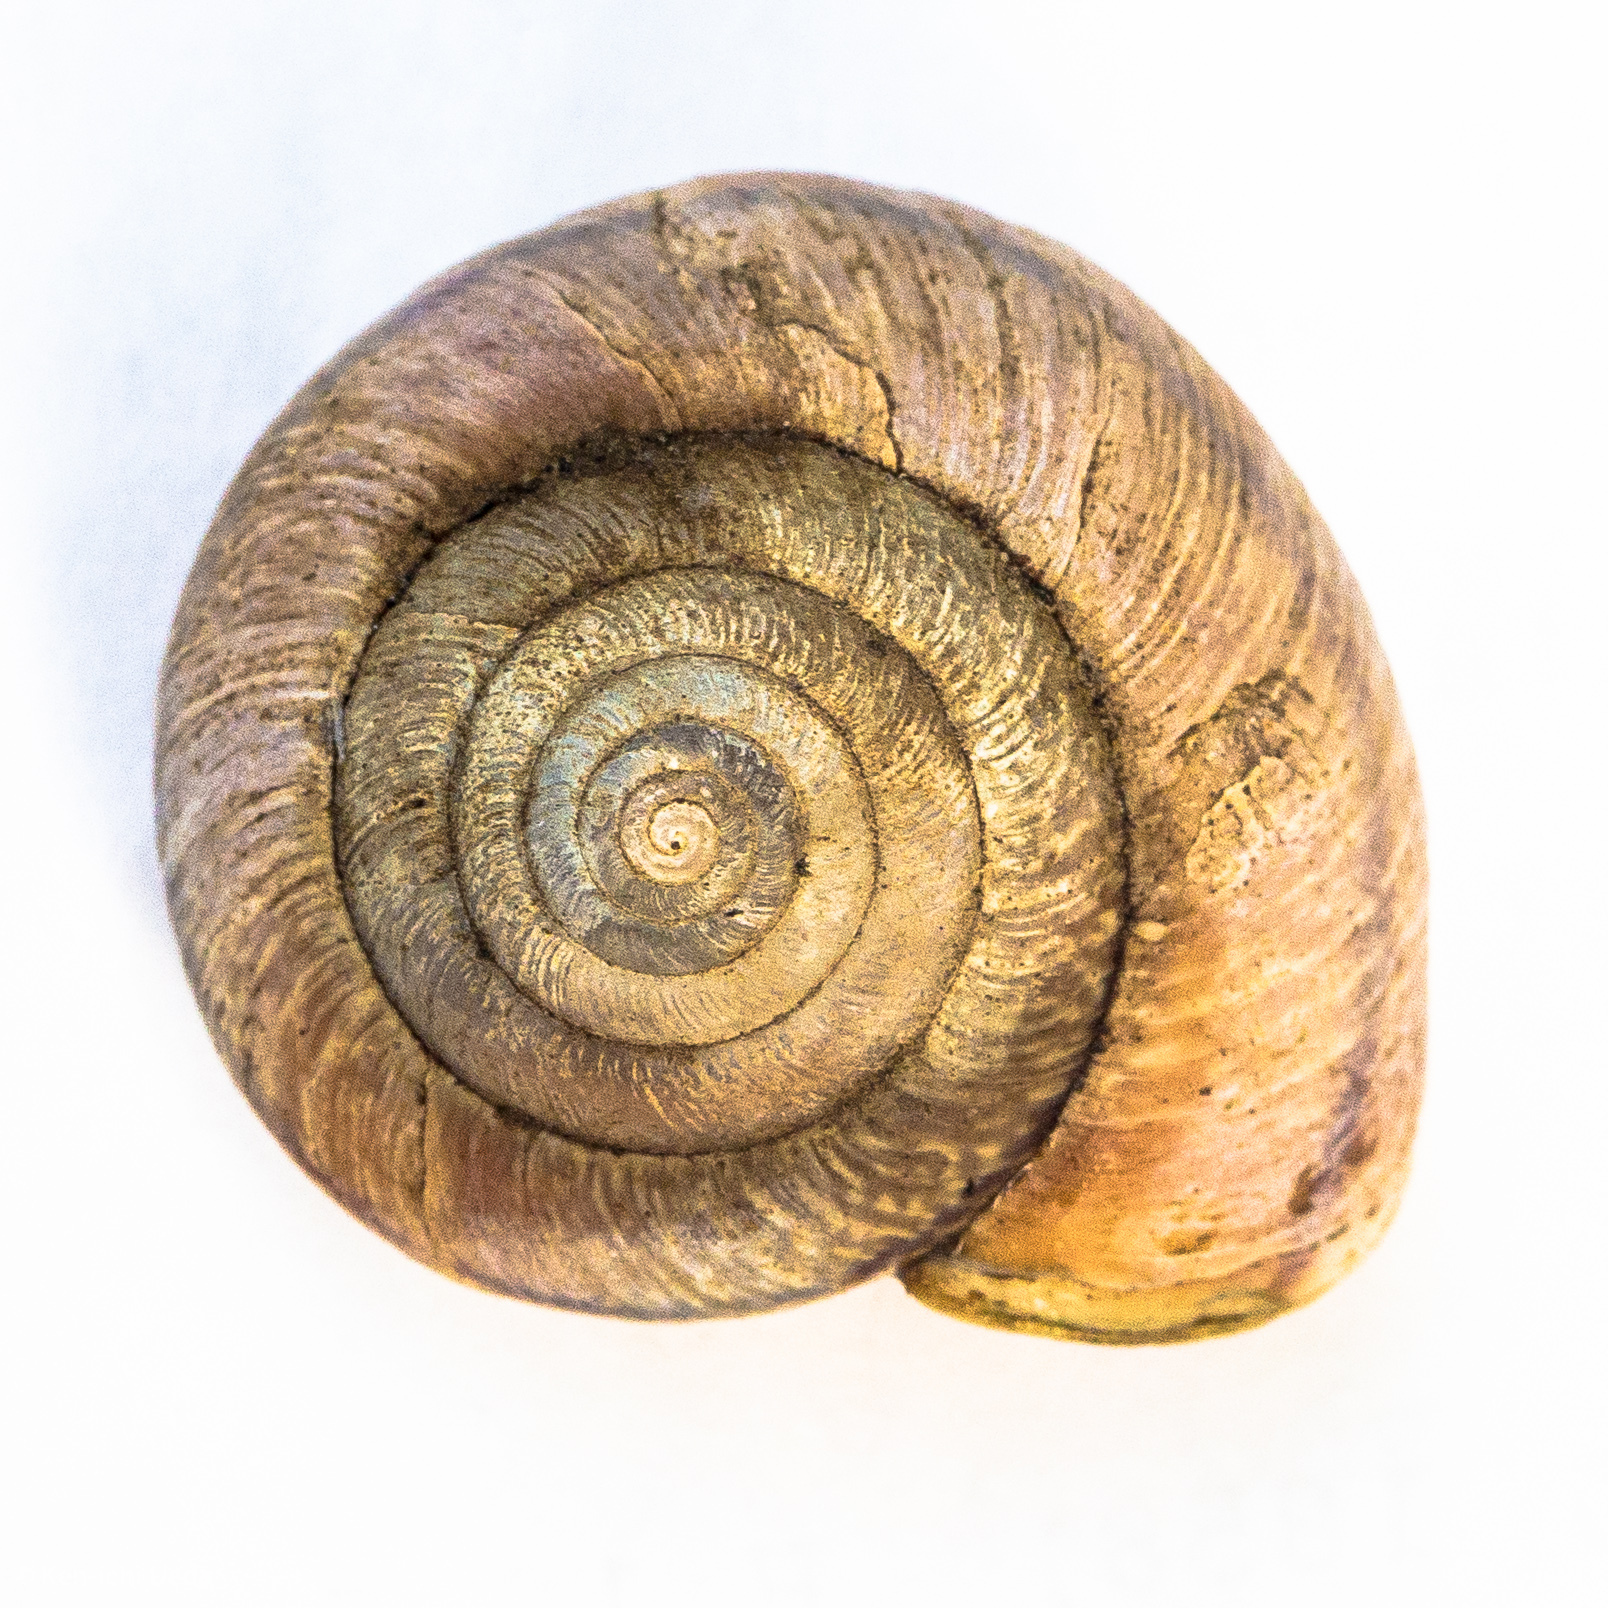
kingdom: Animalia
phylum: Mollusca
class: Gastropoda
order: Stylommatophora
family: Xanthonychidae
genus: Helminthoglypta
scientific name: Helminthoglypta arrosa
